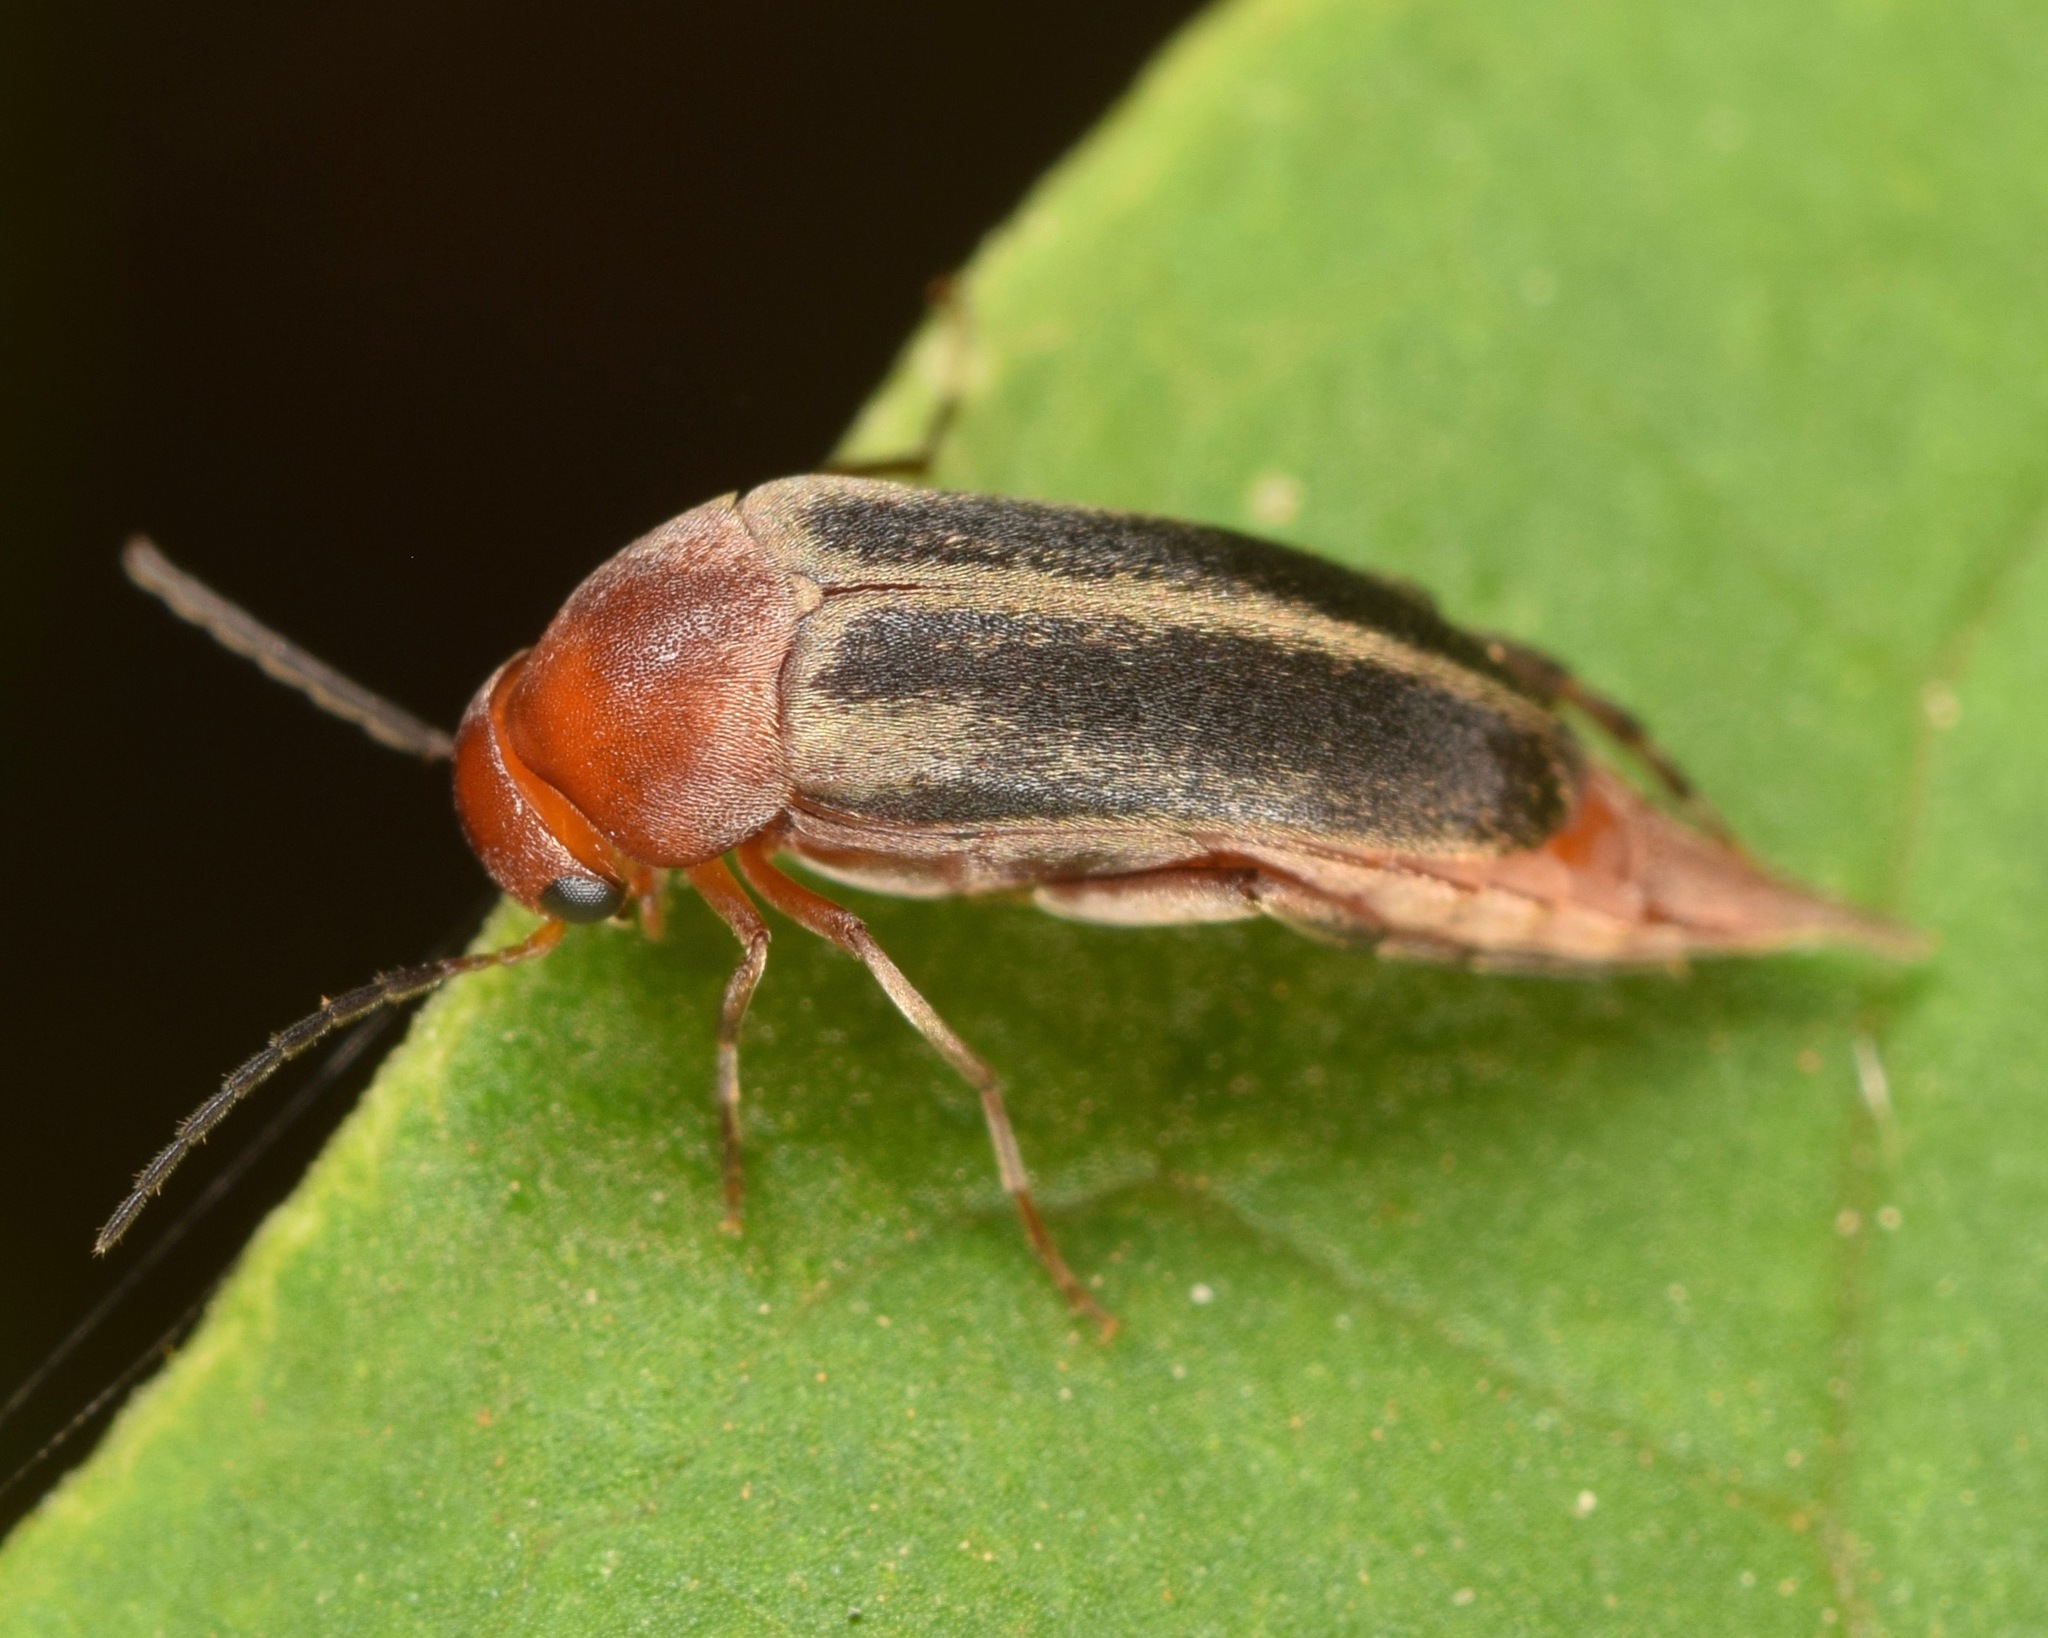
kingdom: Animalia
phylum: Arthropoda
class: Insecta
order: Coleoptera
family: Mordellidae
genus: Mordellistena
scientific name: Mordellistena fuscipennis
